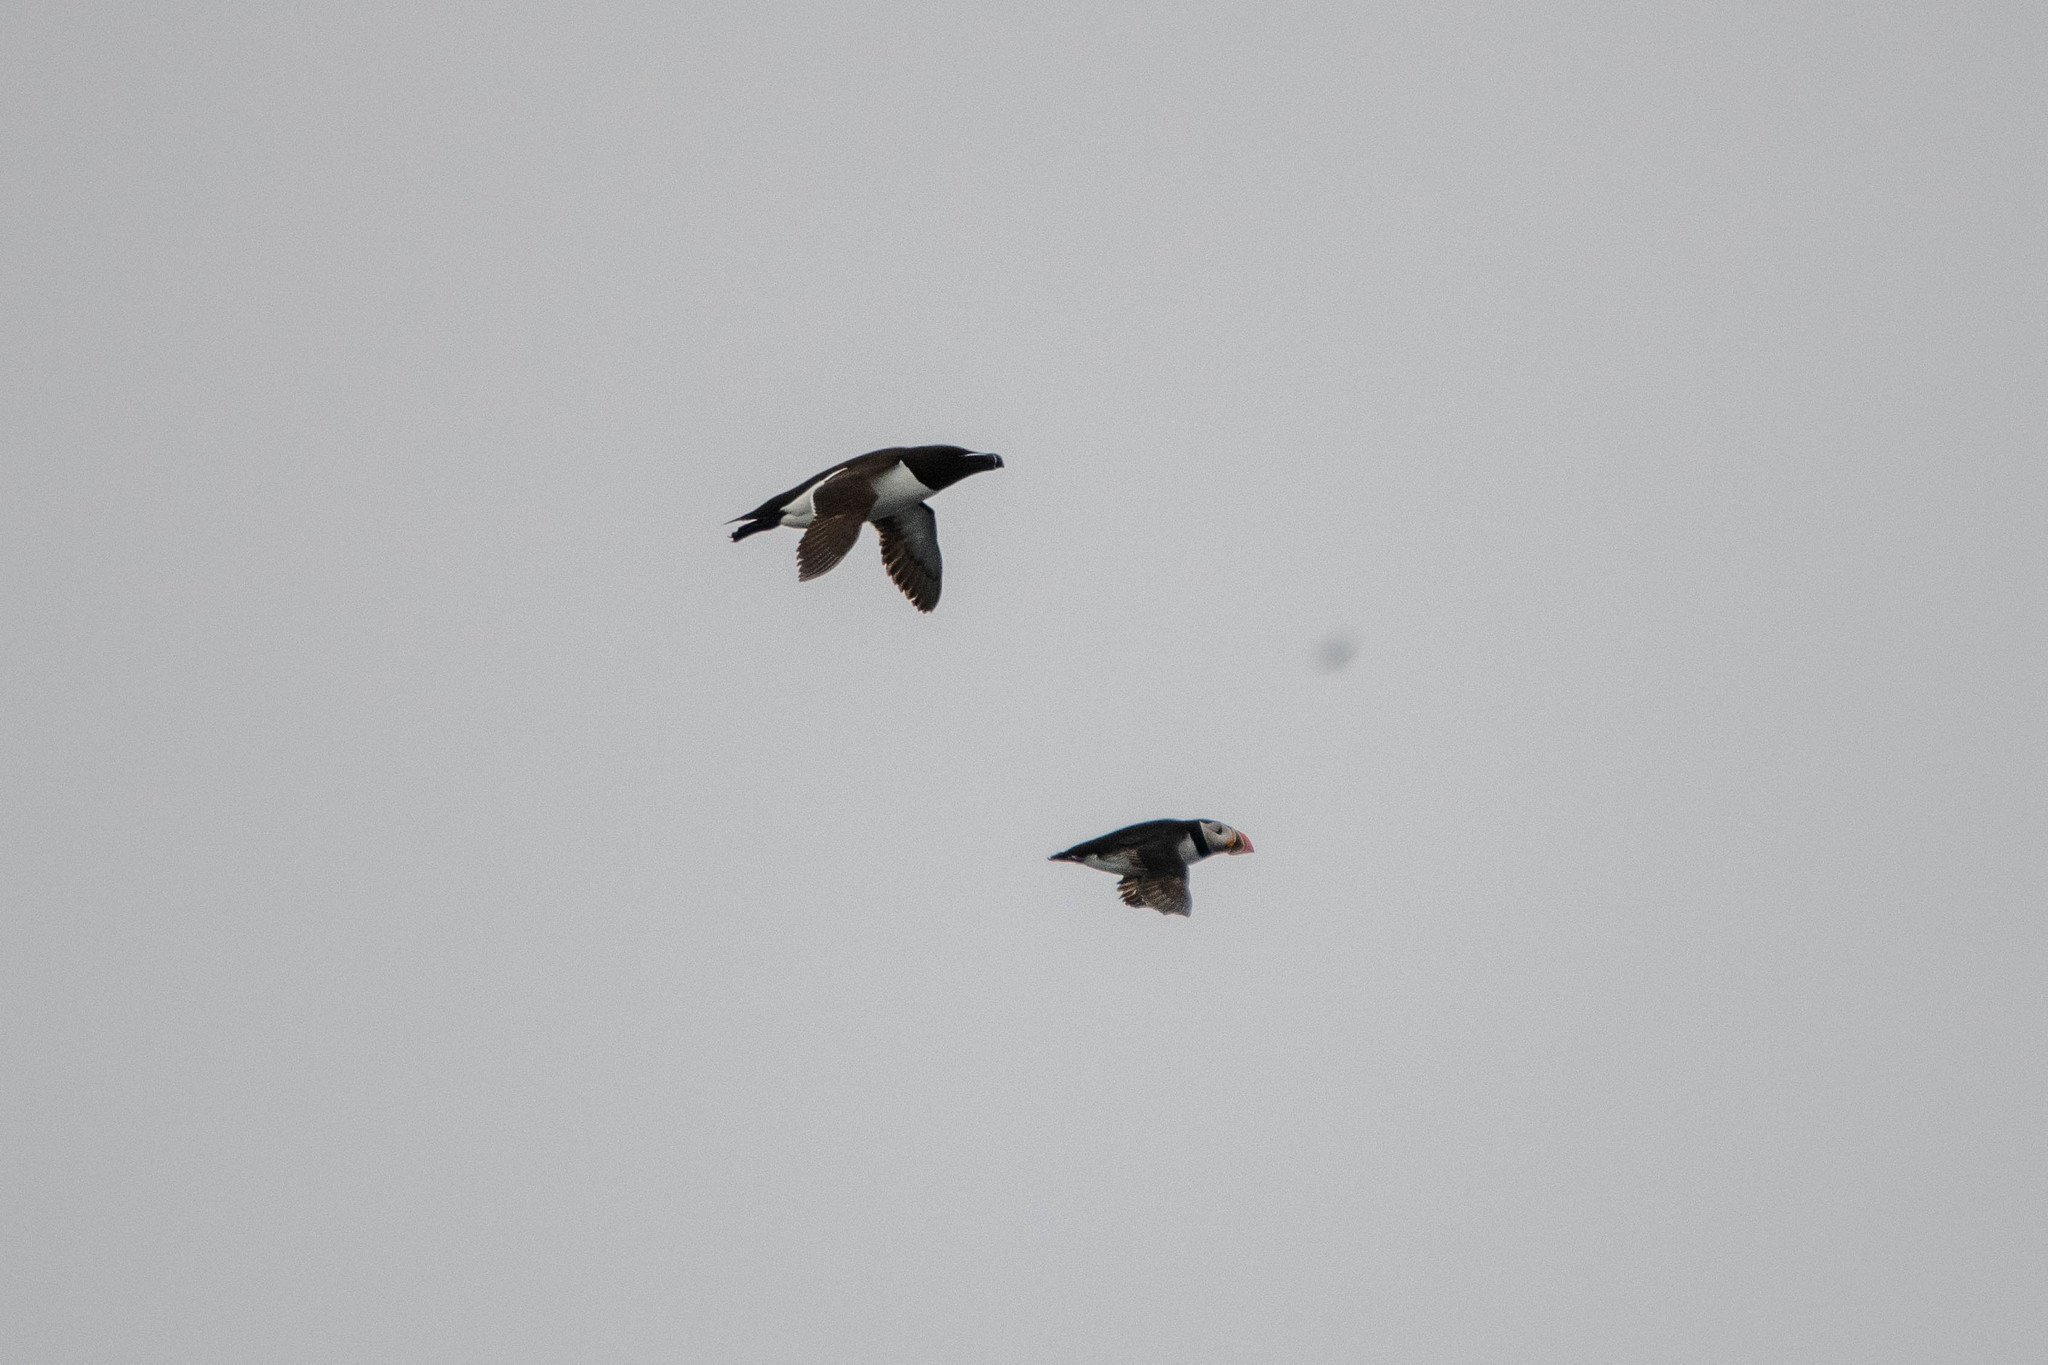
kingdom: Animalia
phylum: Chordata
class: Aves
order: Charadriiformes
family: Alcidae
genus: Fratercula
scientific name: Fratercula arctica
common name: Atlantic puffin
